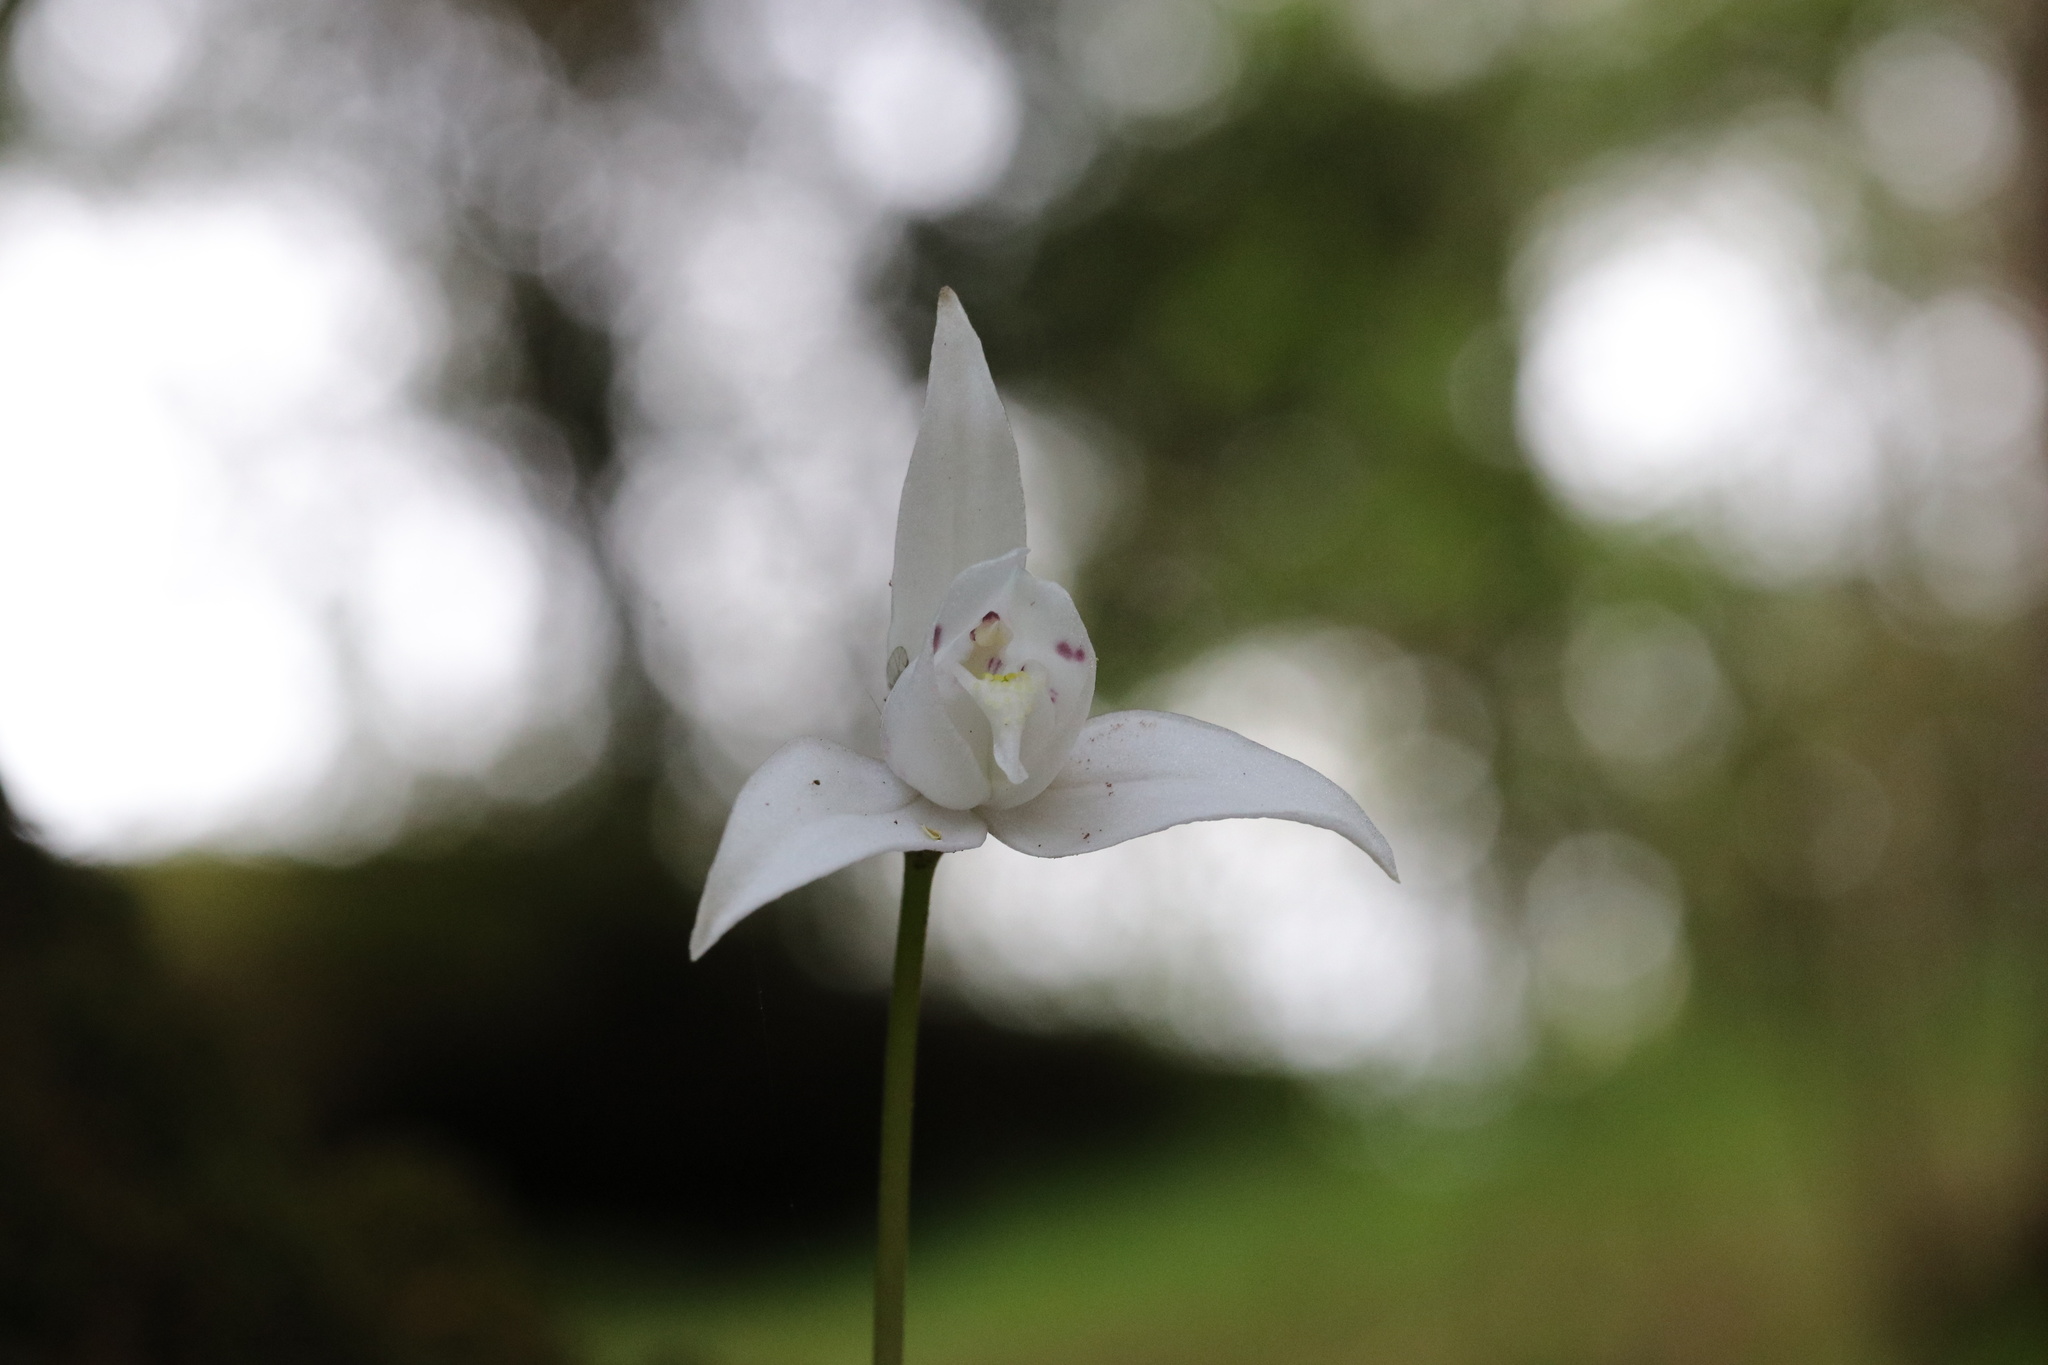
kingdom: Plantae
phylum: Tracheophyta
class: Liliopsida
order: Asparagales
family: Orchidaceae
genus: Codonorchis
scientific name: Codonorchis lessonii
